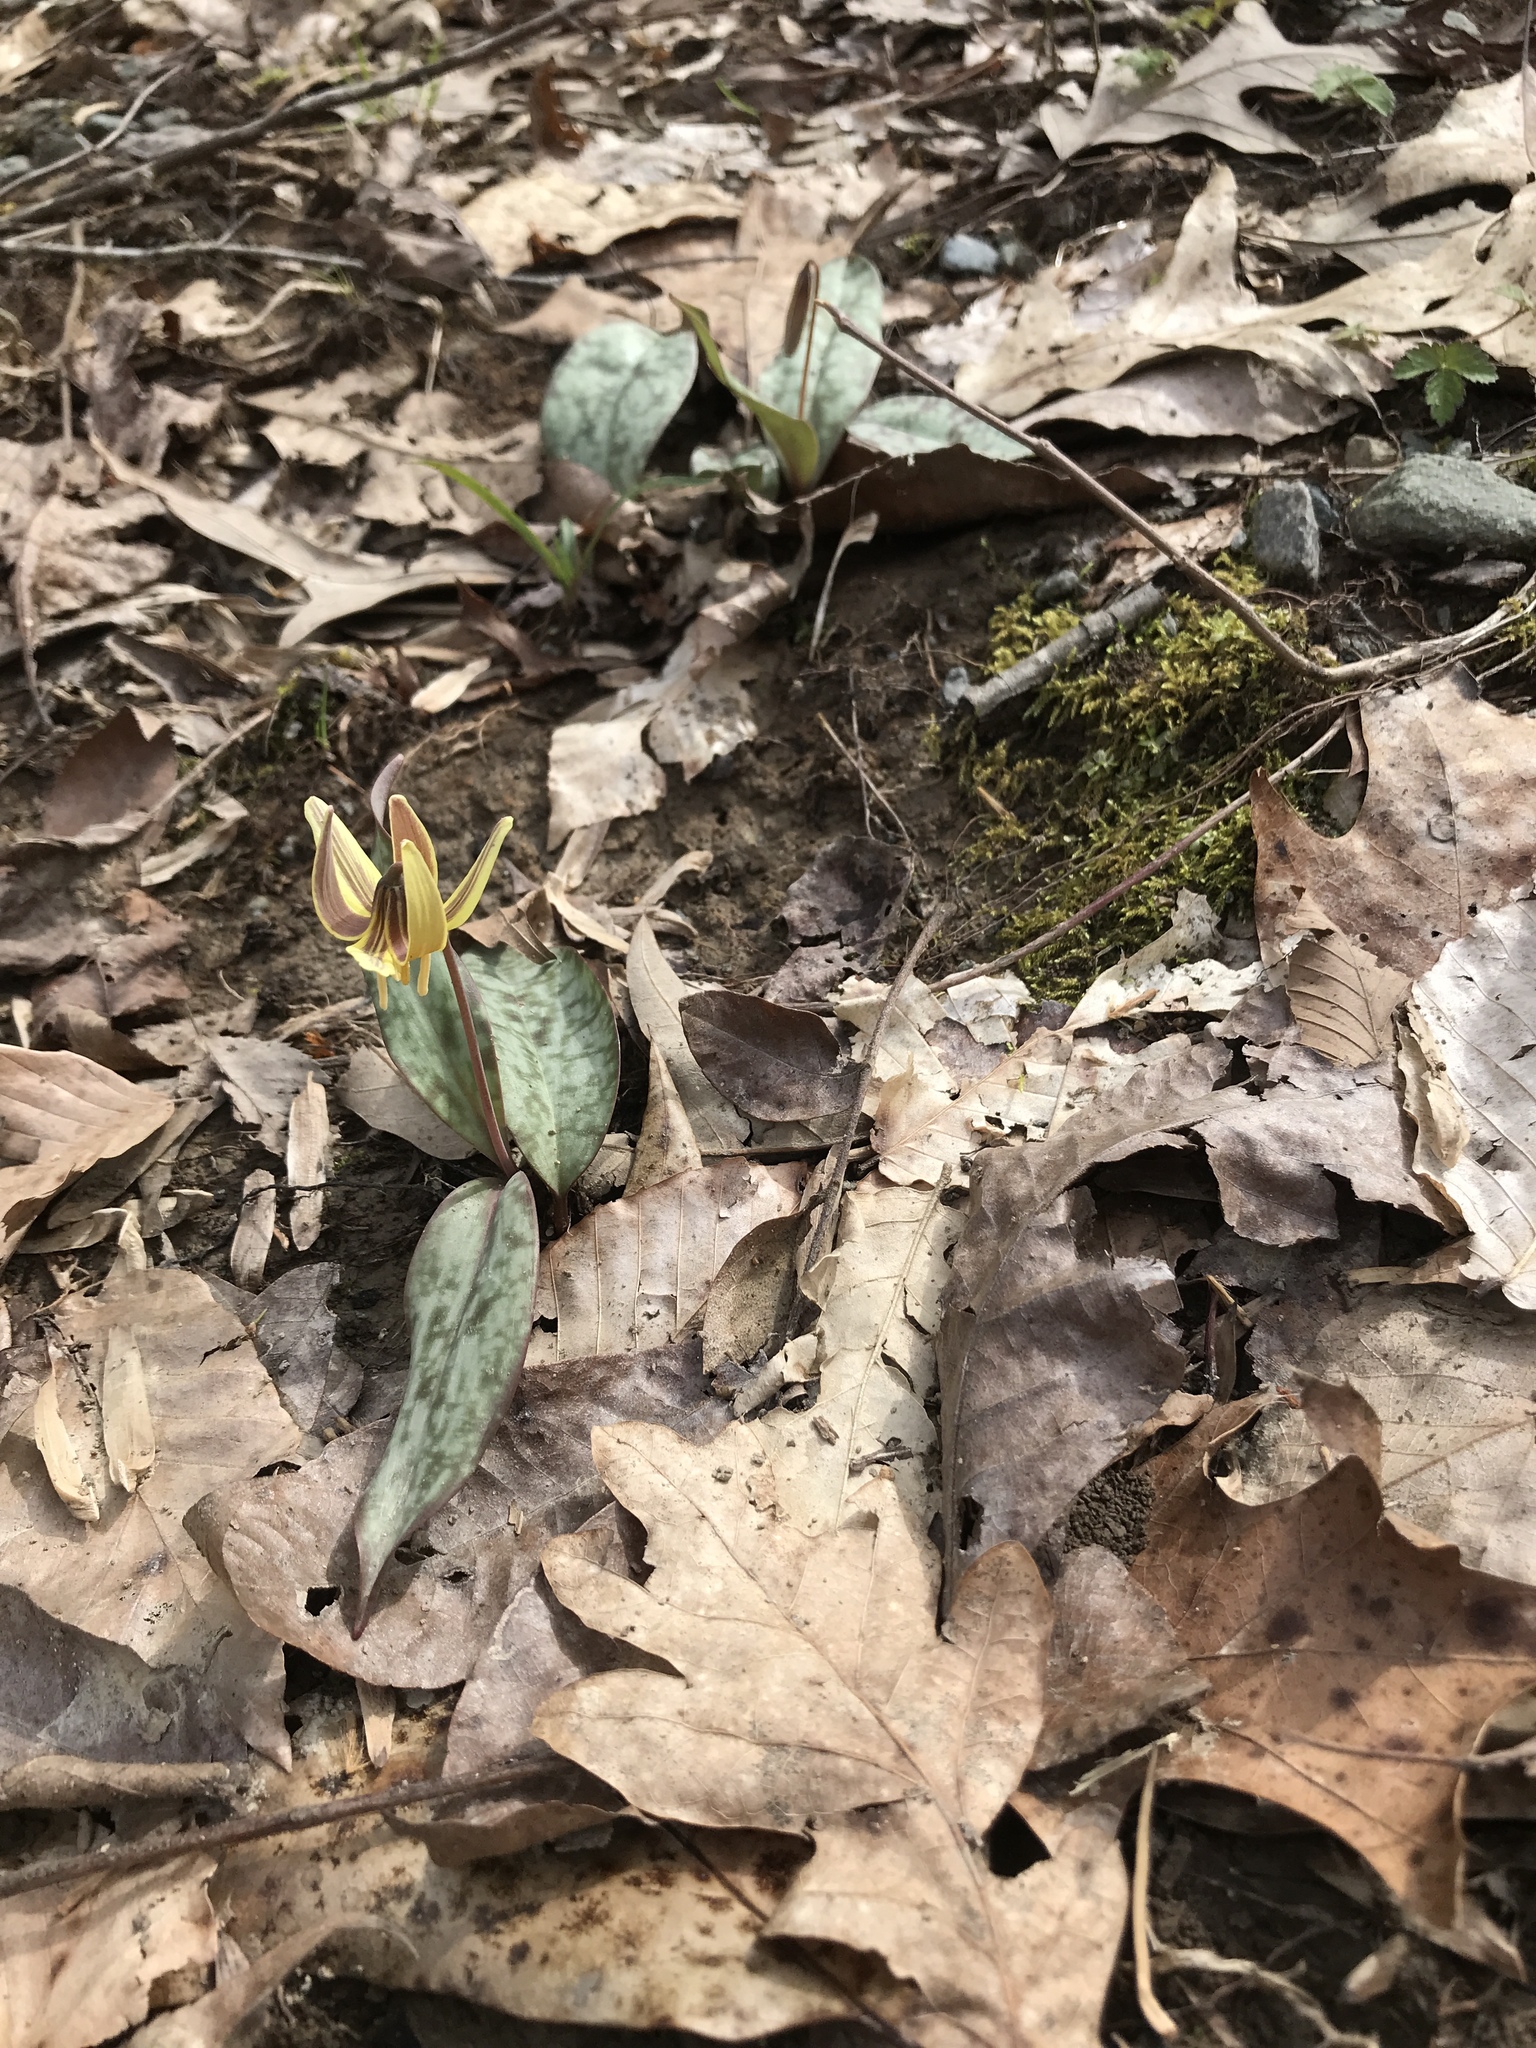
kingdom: Plantae
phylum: Tracheophyta
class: Liliopsida
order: Liliales
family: Liliaceae
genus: Erythronium
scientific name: Erythronium umbilicatum
